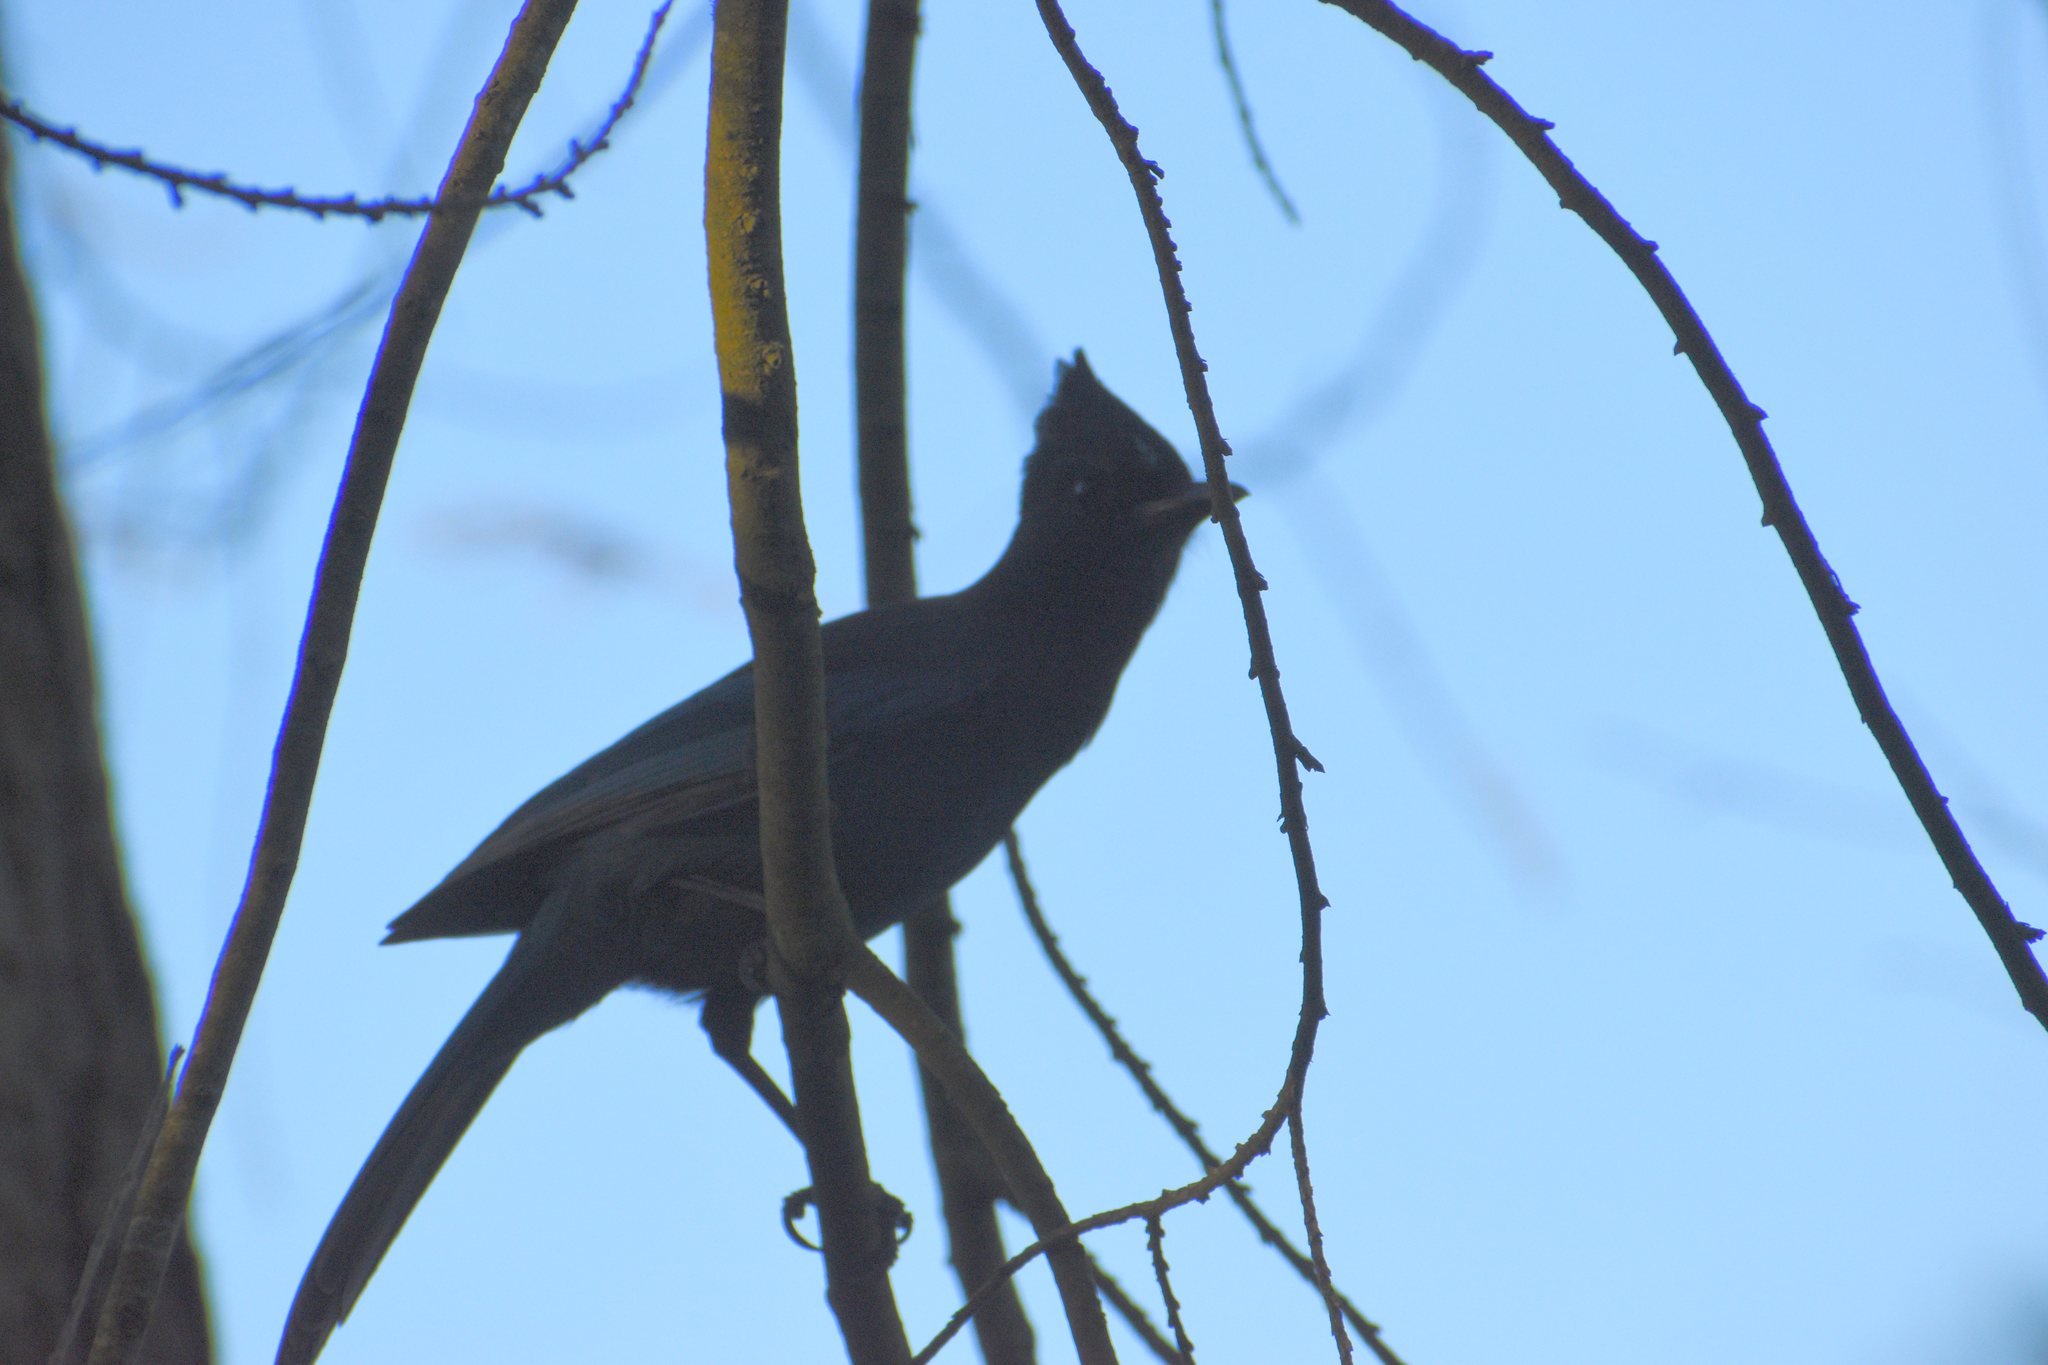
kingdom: Animalia
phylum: Chordata
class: Aves
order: Passeriformes
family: Corvidae
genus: Cyanocitta
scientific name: Cyanocitta stelleri
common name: Steller's jay
